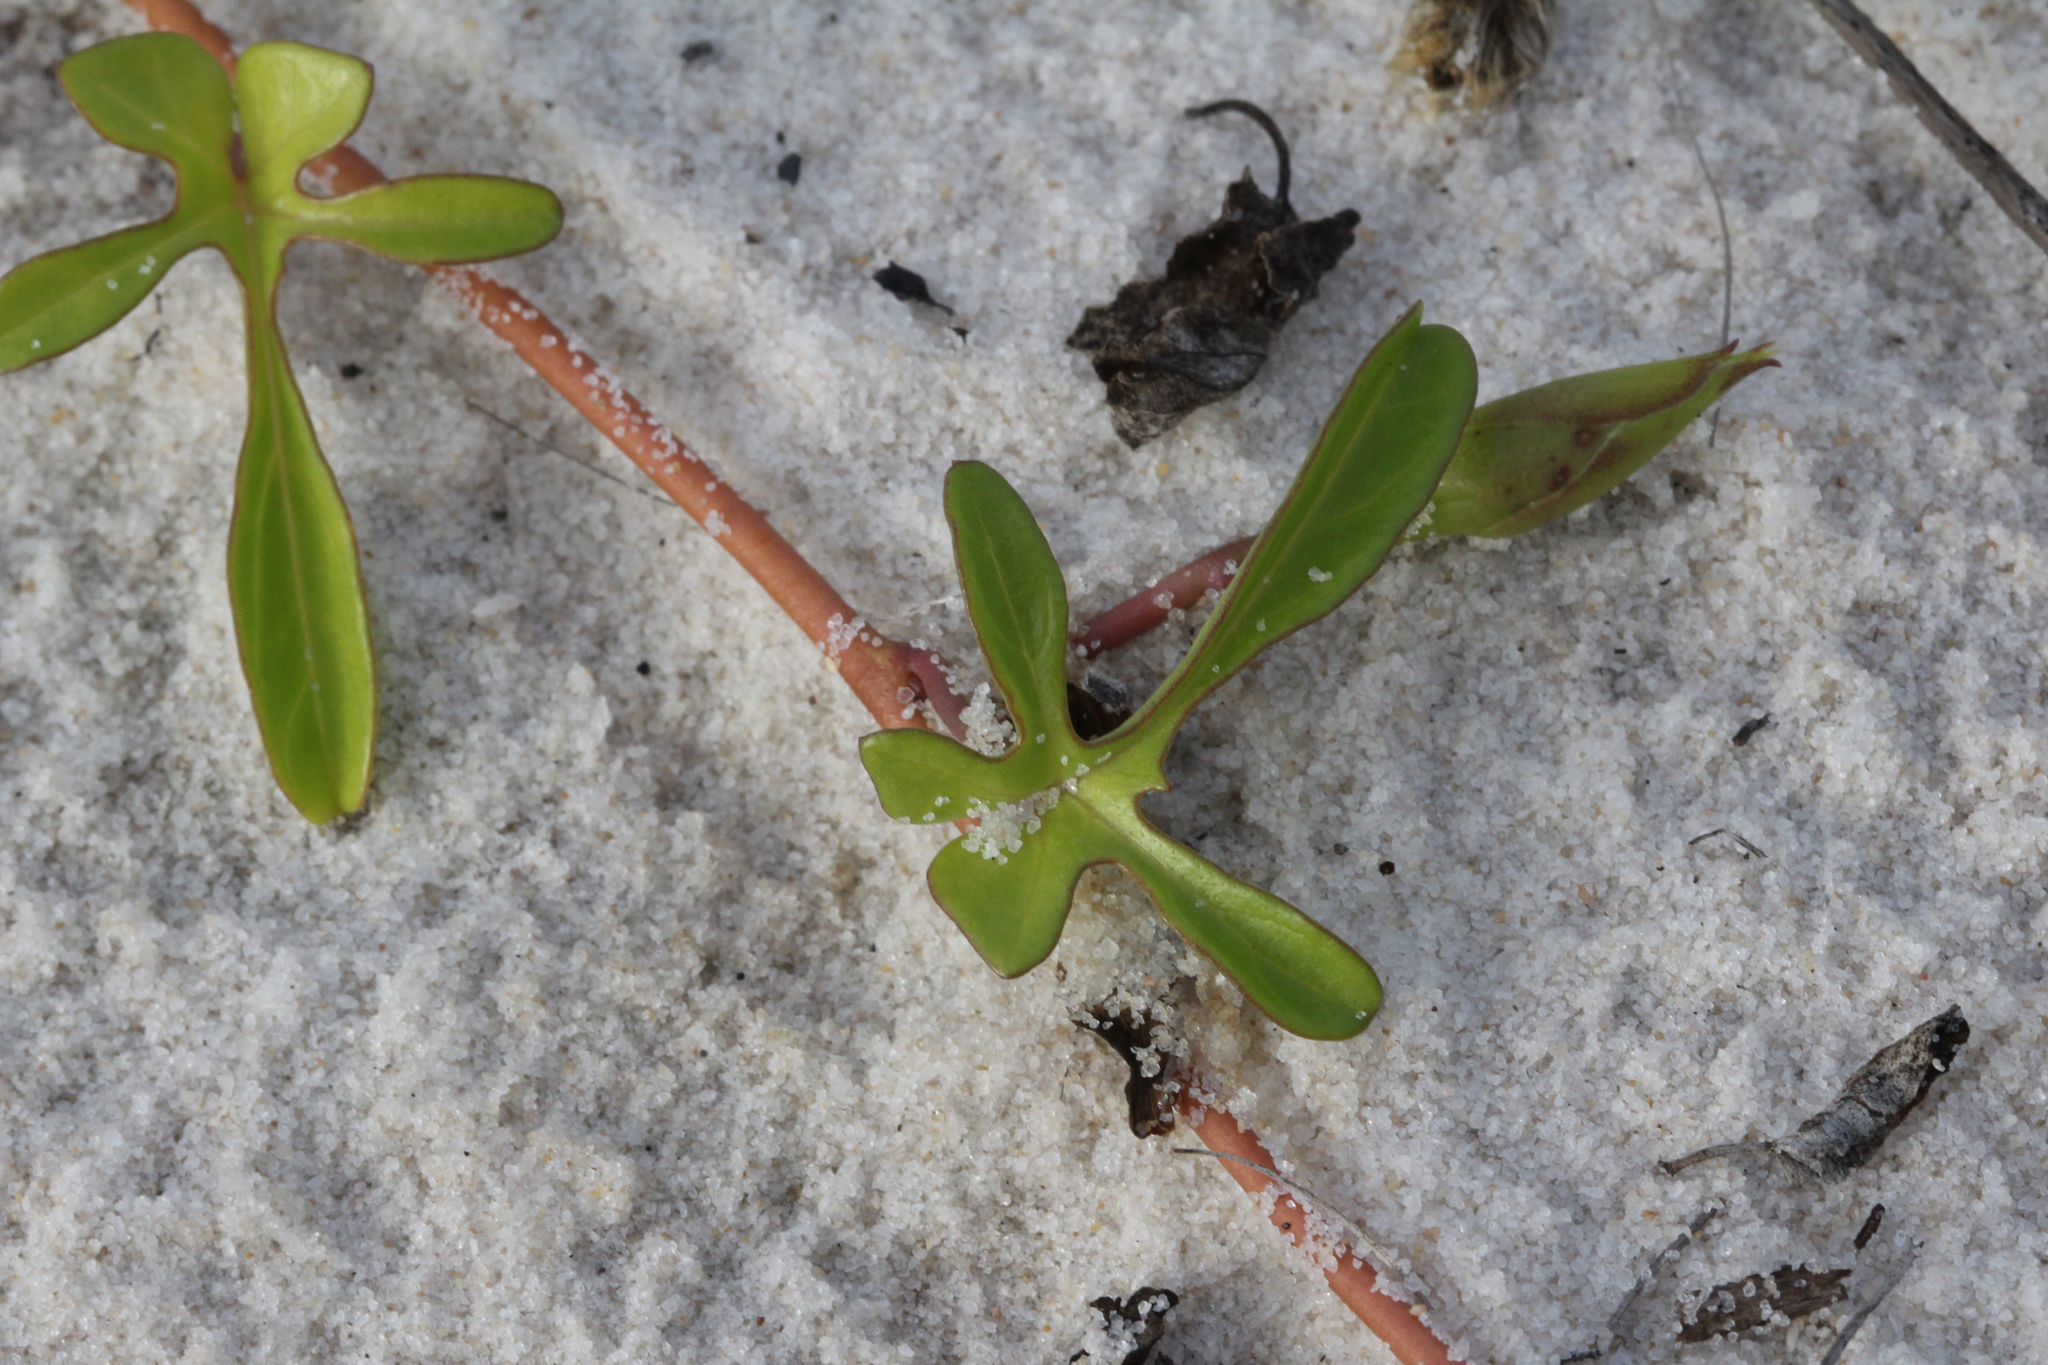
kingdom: Plantae
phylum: Tracheophyta
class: Magnoliopsida
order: Solanales
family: Convolvulaceae
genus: Ipomoea
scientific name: Ipomoea imperati
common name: Fiddle-leaf morning-glory
